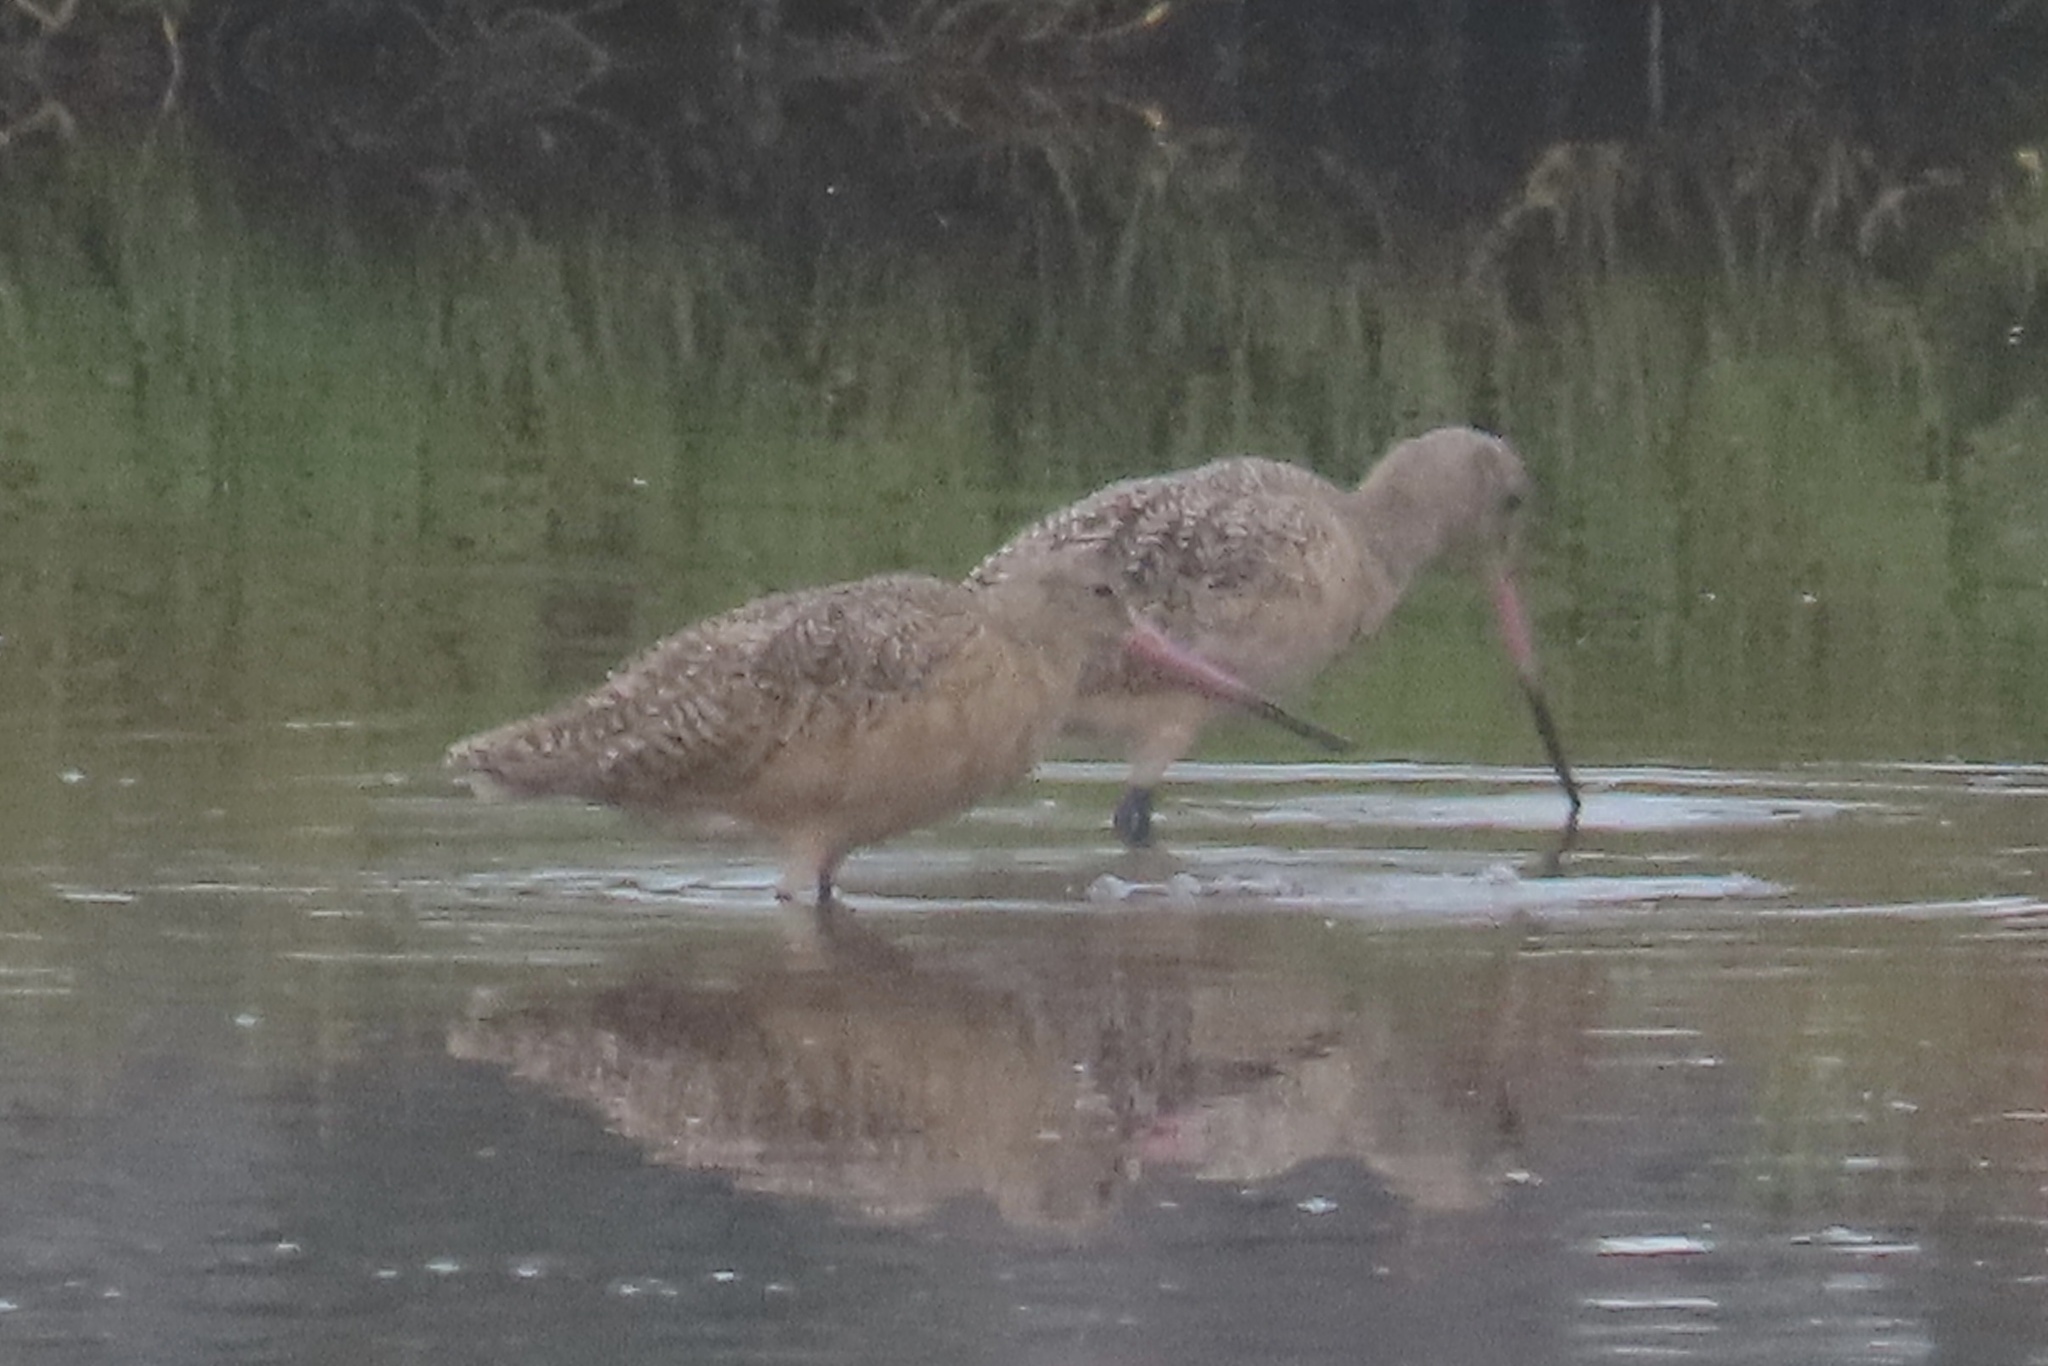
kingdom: Animalia
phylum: Chordata
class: Aves
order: Charadriiformes
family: Scolopacidae
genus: Limosa
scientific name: Limosa fedoa
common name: Marbled godwit
